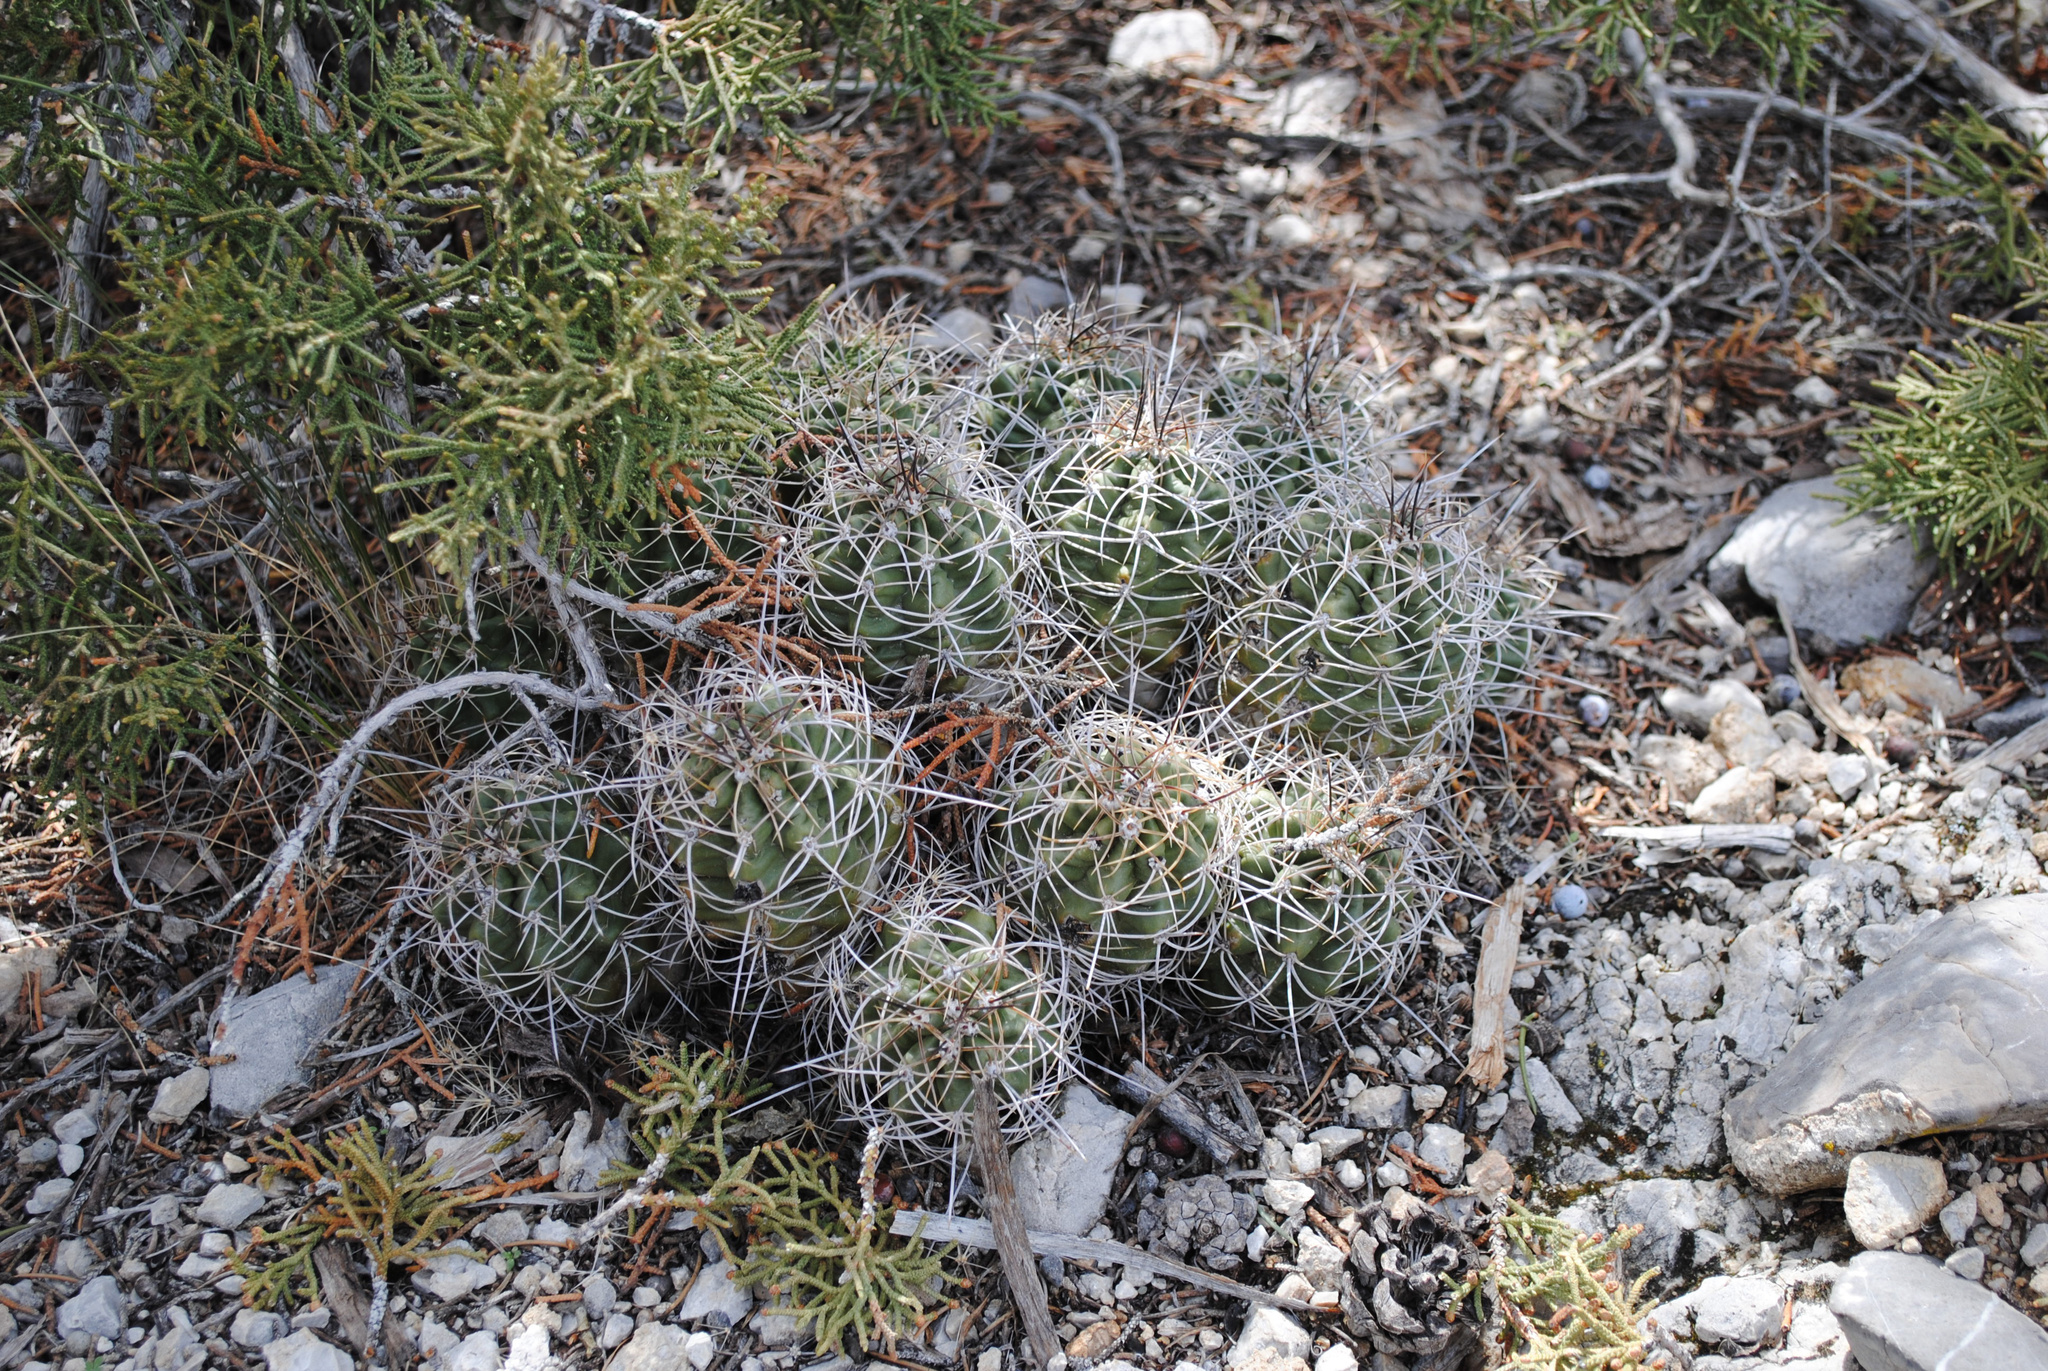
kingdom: Plantae
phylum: Tracheophyta
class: Magnoliopsida
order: Caryophyllales
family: Cactaceae
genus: Echinocereus
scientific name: Echinocereus triglochidiatus
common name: Claretcup hedgehog
